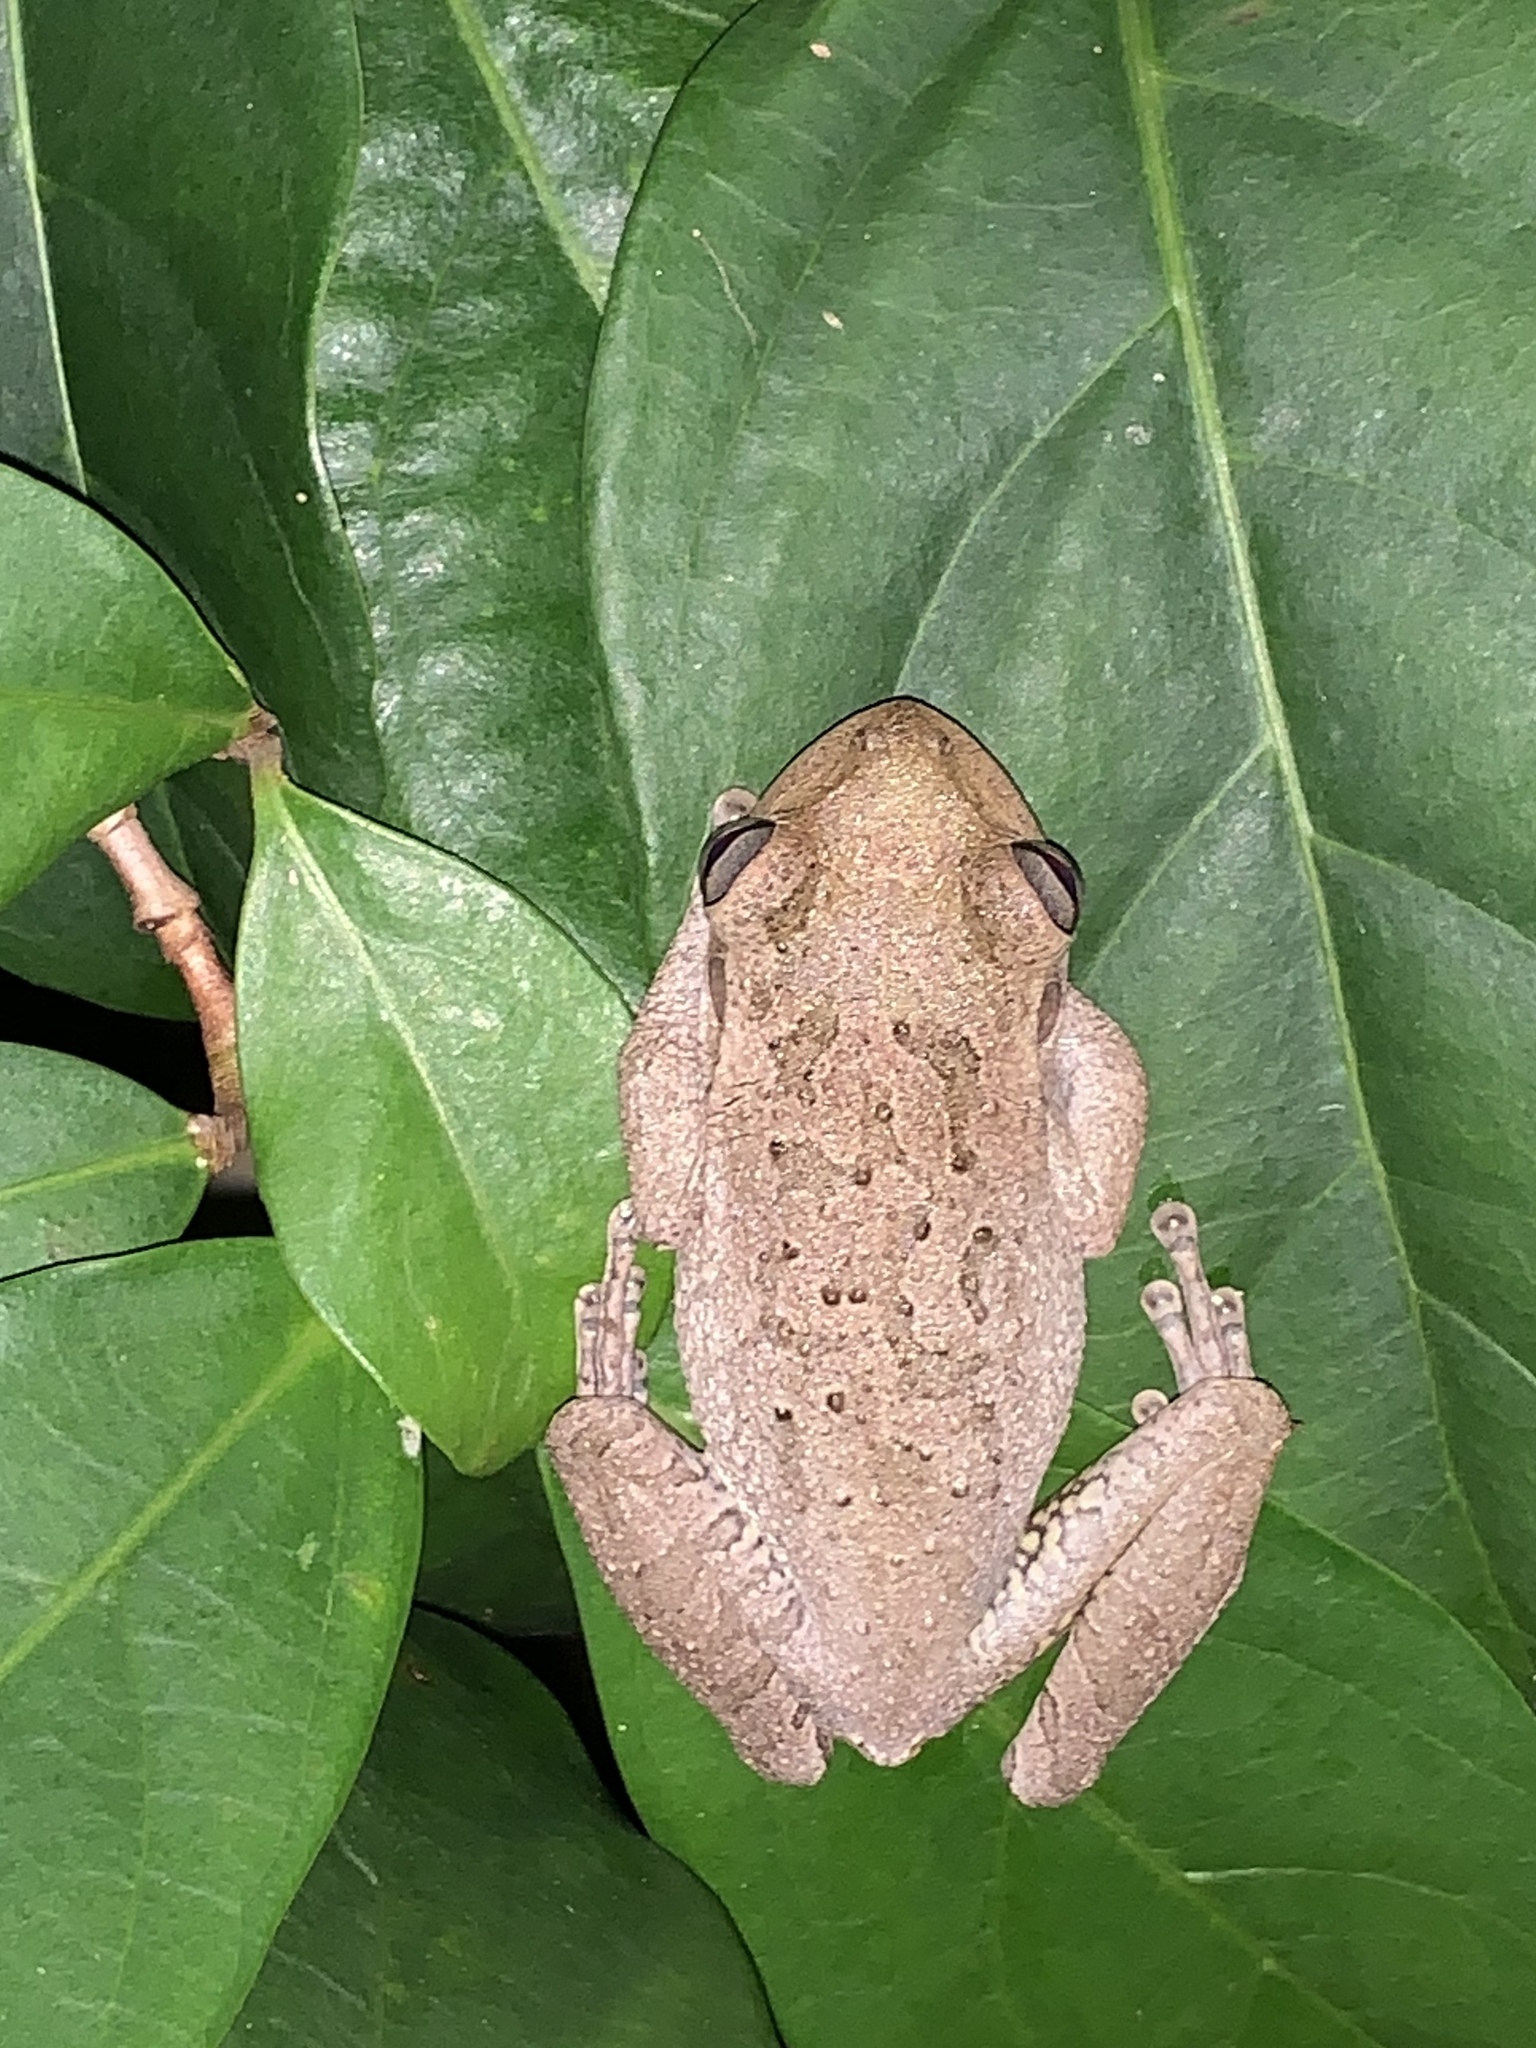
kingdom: Animalia
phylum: Chordata
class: Amphibia
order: Anura
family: Hylidae
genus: Osteopilus
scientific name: Osteopilus septentrionalis
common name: Cuban treefrog
